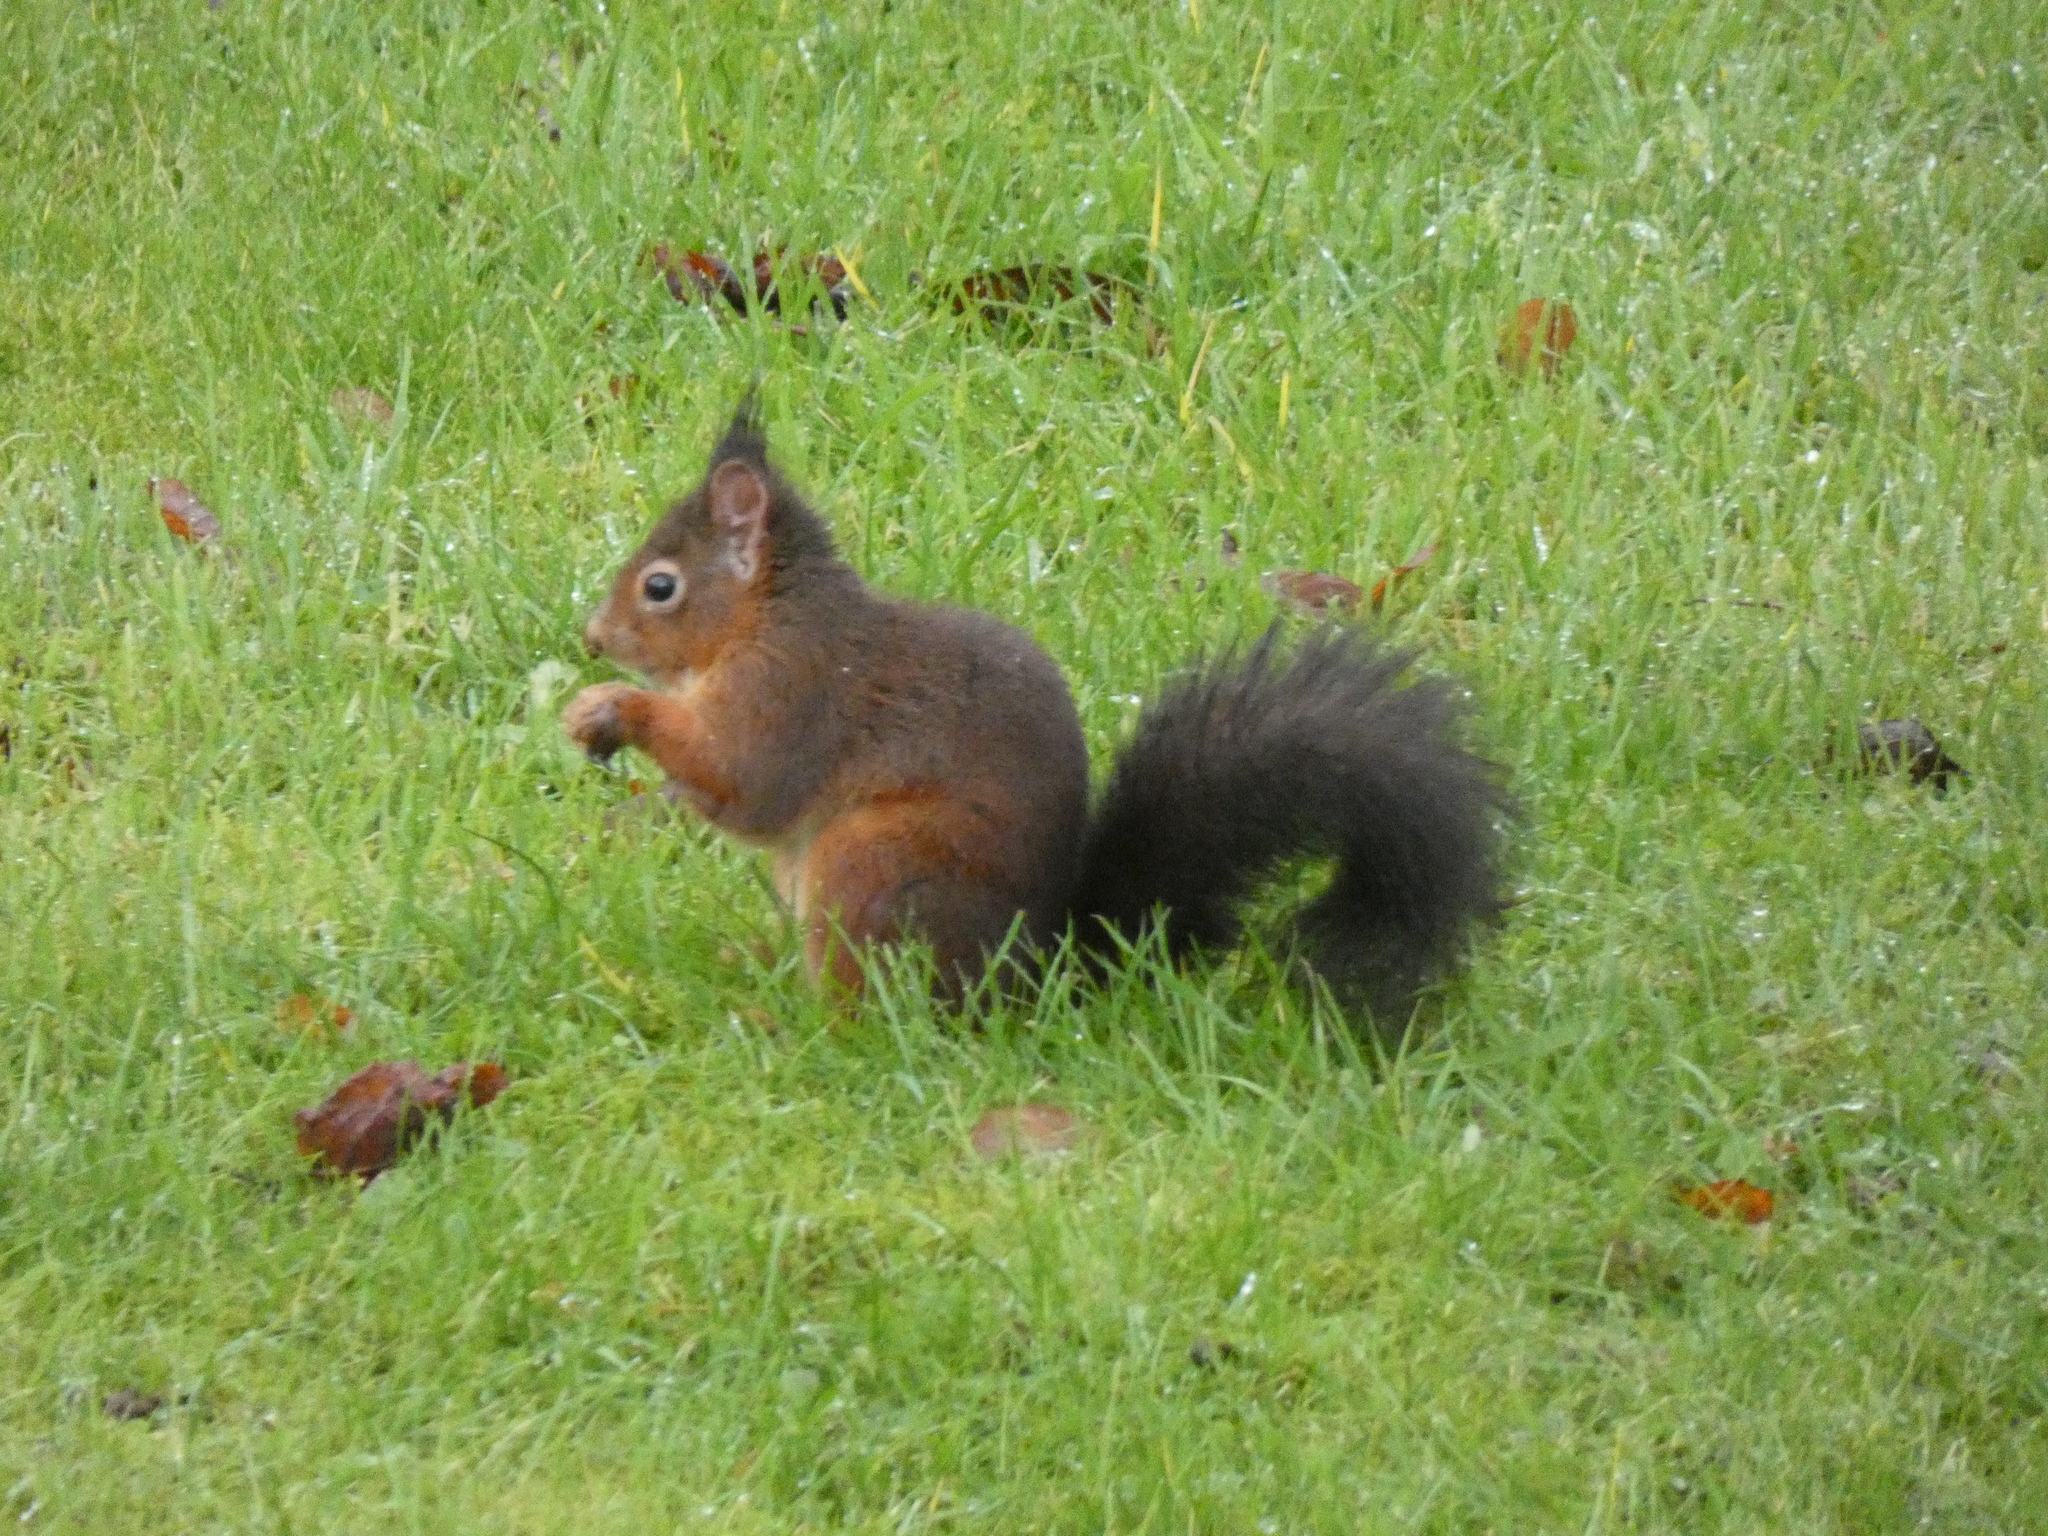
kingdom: Animalia
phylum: Chordata
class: Mammalia
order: Rodentia
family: Sciuridae
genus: Sciurus
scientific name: Sciurus vulgaris
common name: Eurasian red squirrel
